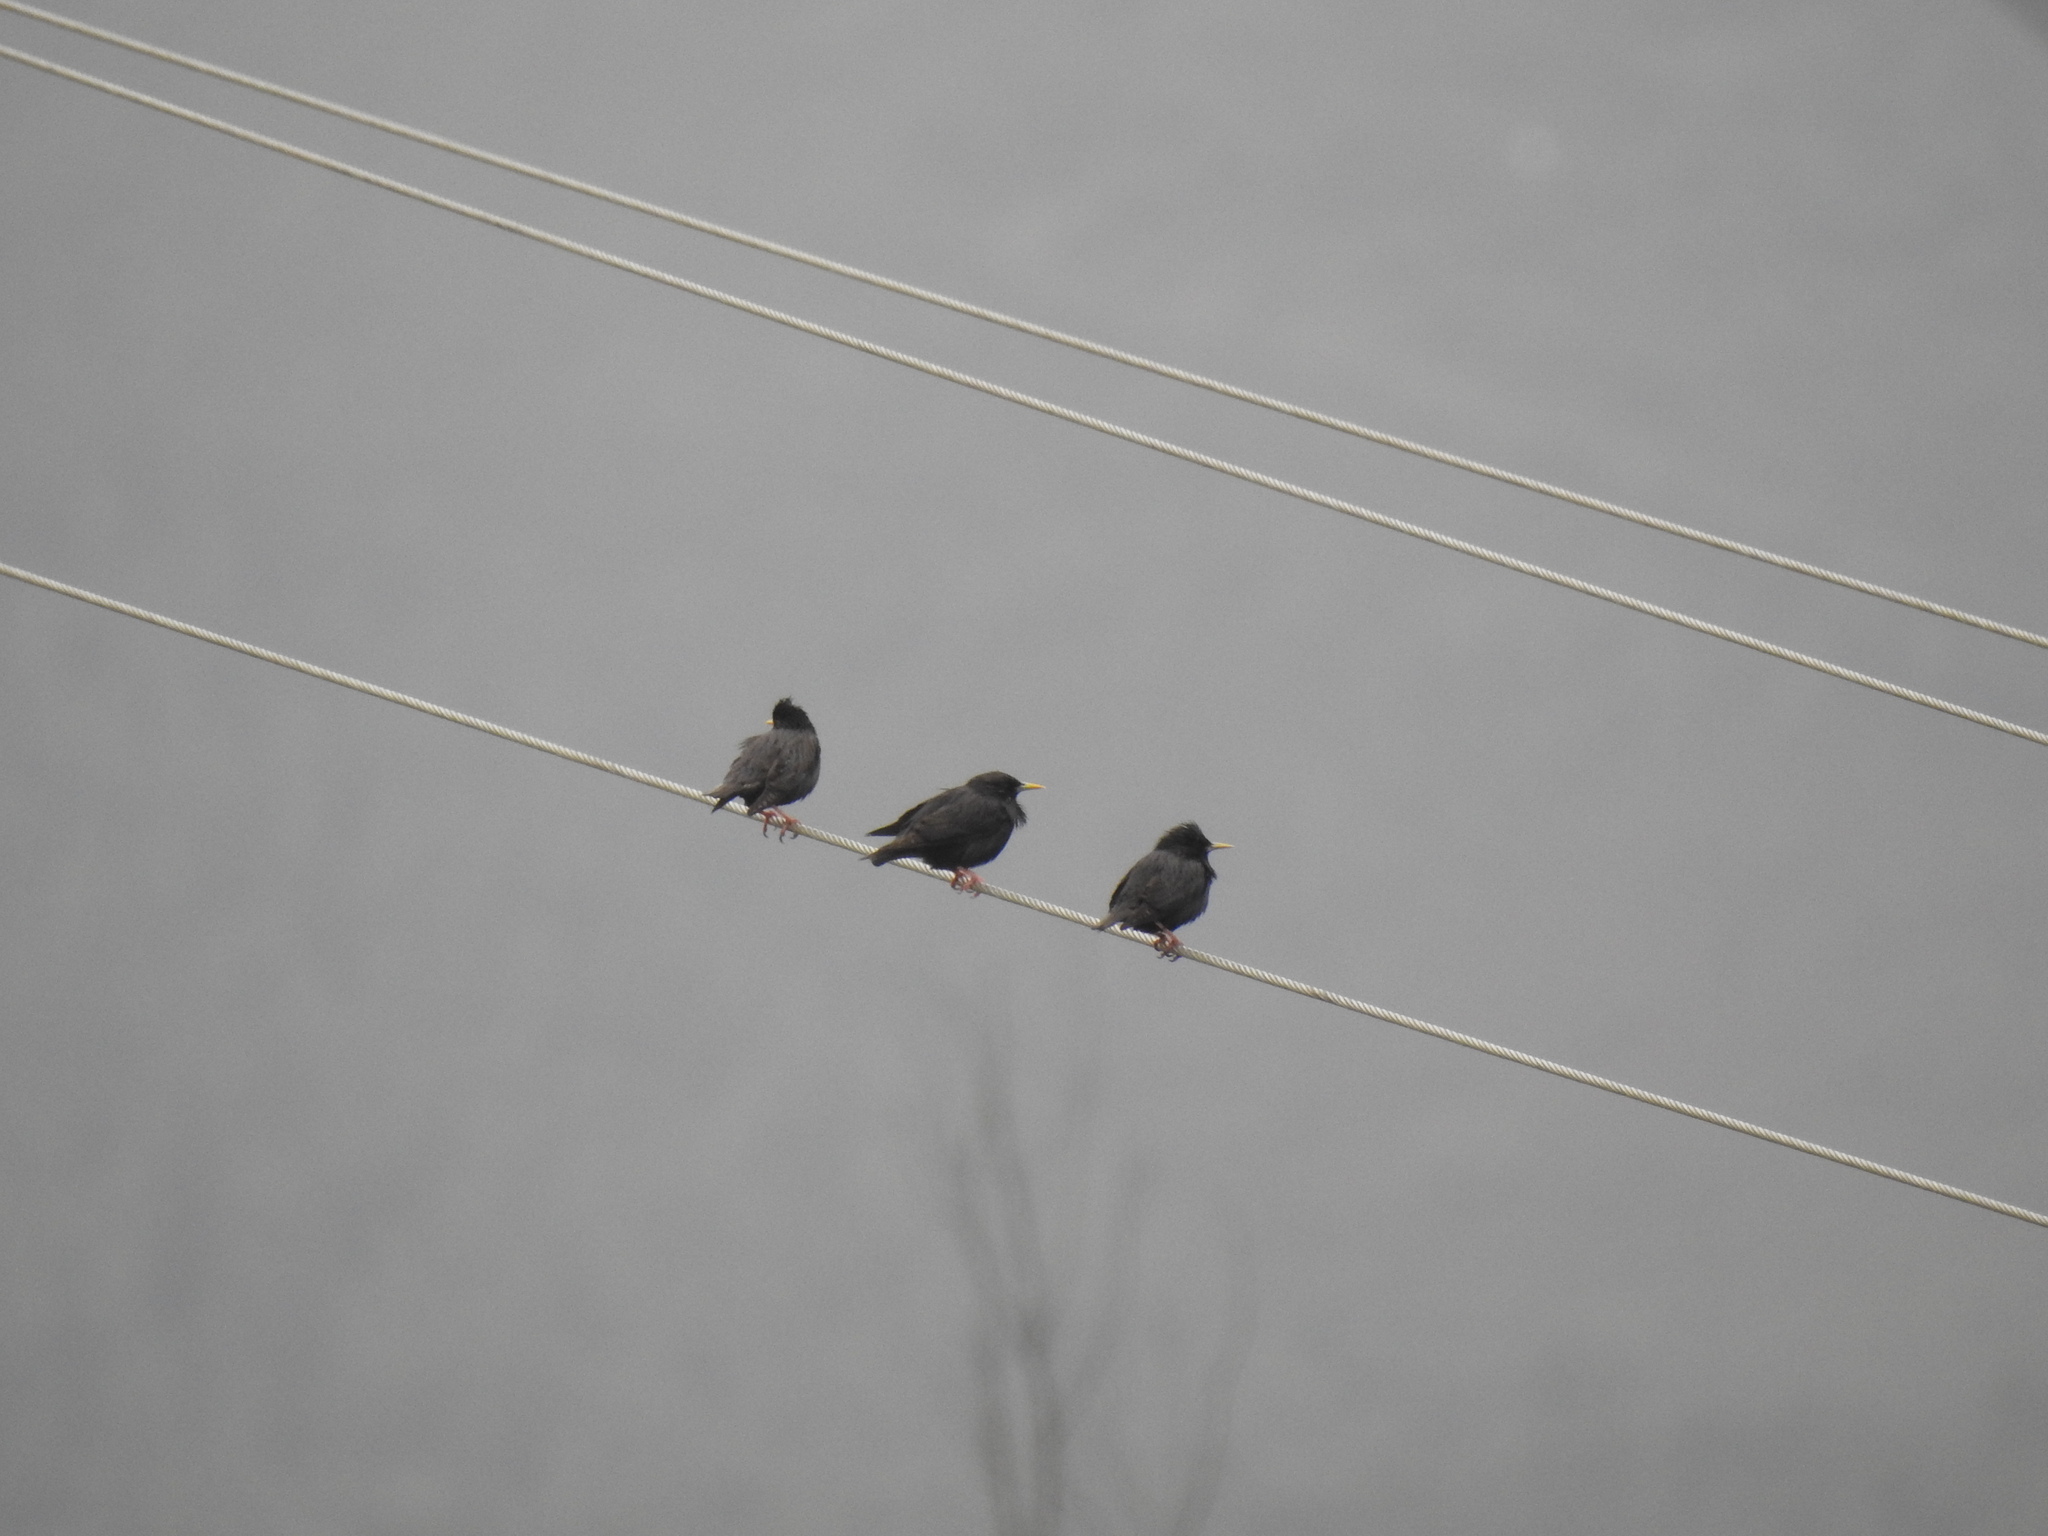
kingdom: Animalia
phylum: Chordata
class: Aves
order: Passeriformes
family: Sturnidae
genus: Sturnus
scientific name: Sturnus unicolor
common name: Spotless starling
